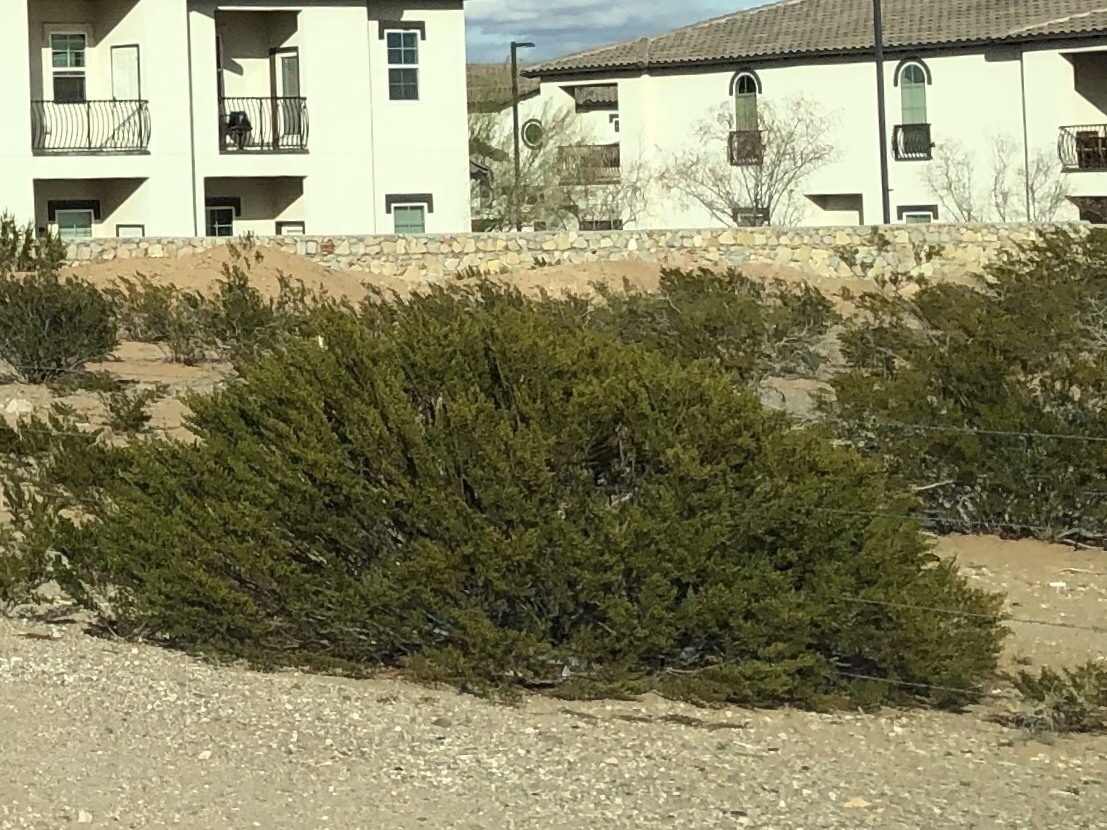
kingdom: Plantae
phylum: Tracheophyta
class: Magnoliopsida
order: Zygophyllales
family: Zygophyllaceae
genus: Larrea
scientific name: Larrea tridentata
